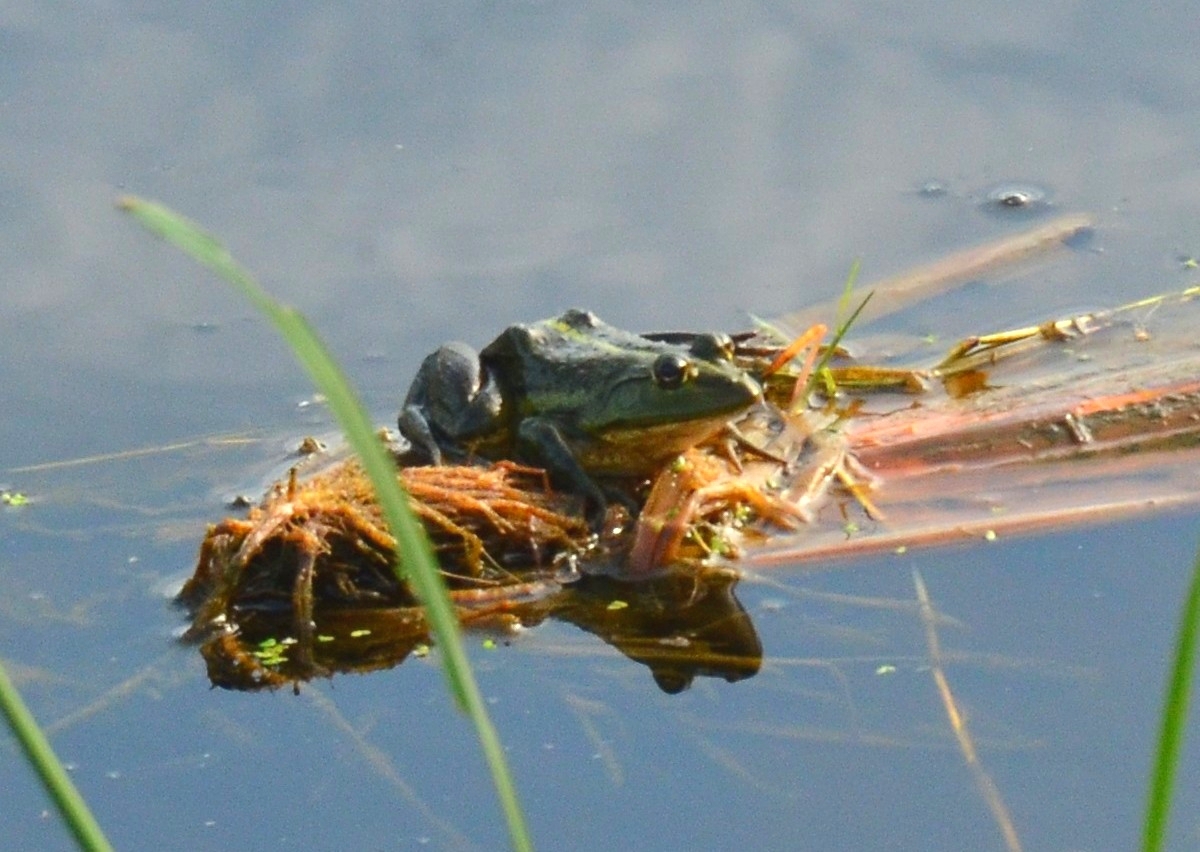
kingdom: Animalia
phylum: Chordata
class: Amphibia
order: Anura
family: Dicroglossidae
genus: Euphlyctis
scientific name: Euphlyctis karaavali
